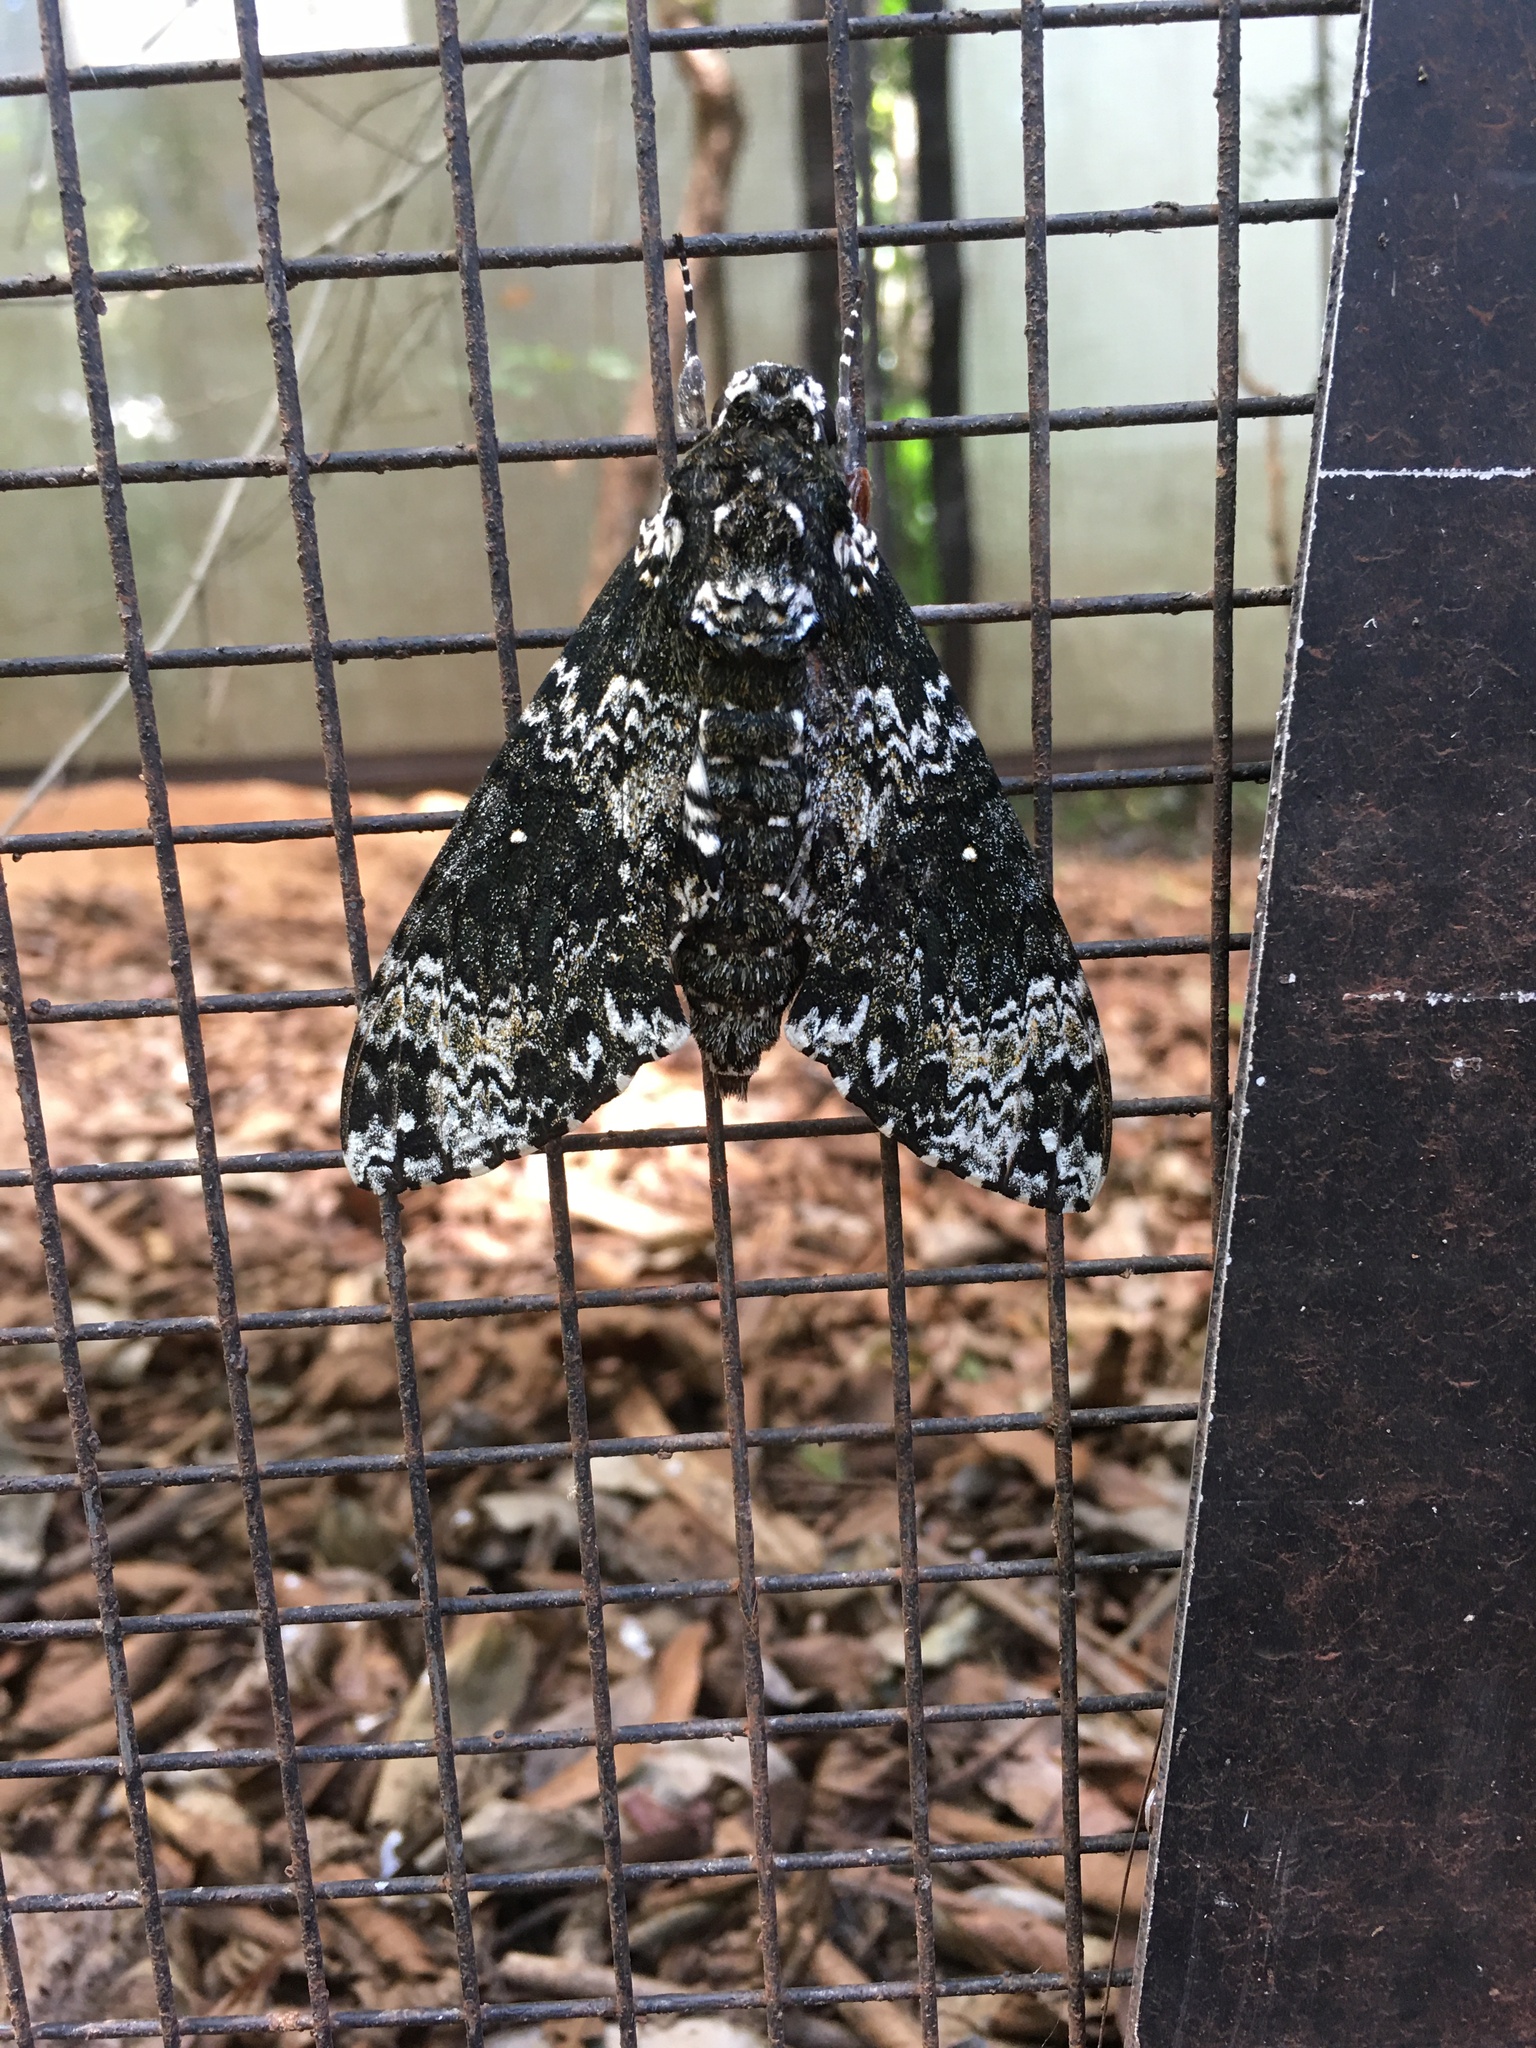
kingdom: Animalia
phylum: Arthropoda
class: Insecta
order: Lepidoptera
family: Sphingidae
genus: Manduca
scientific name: Manduca rustica
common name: Rustic sphinx
